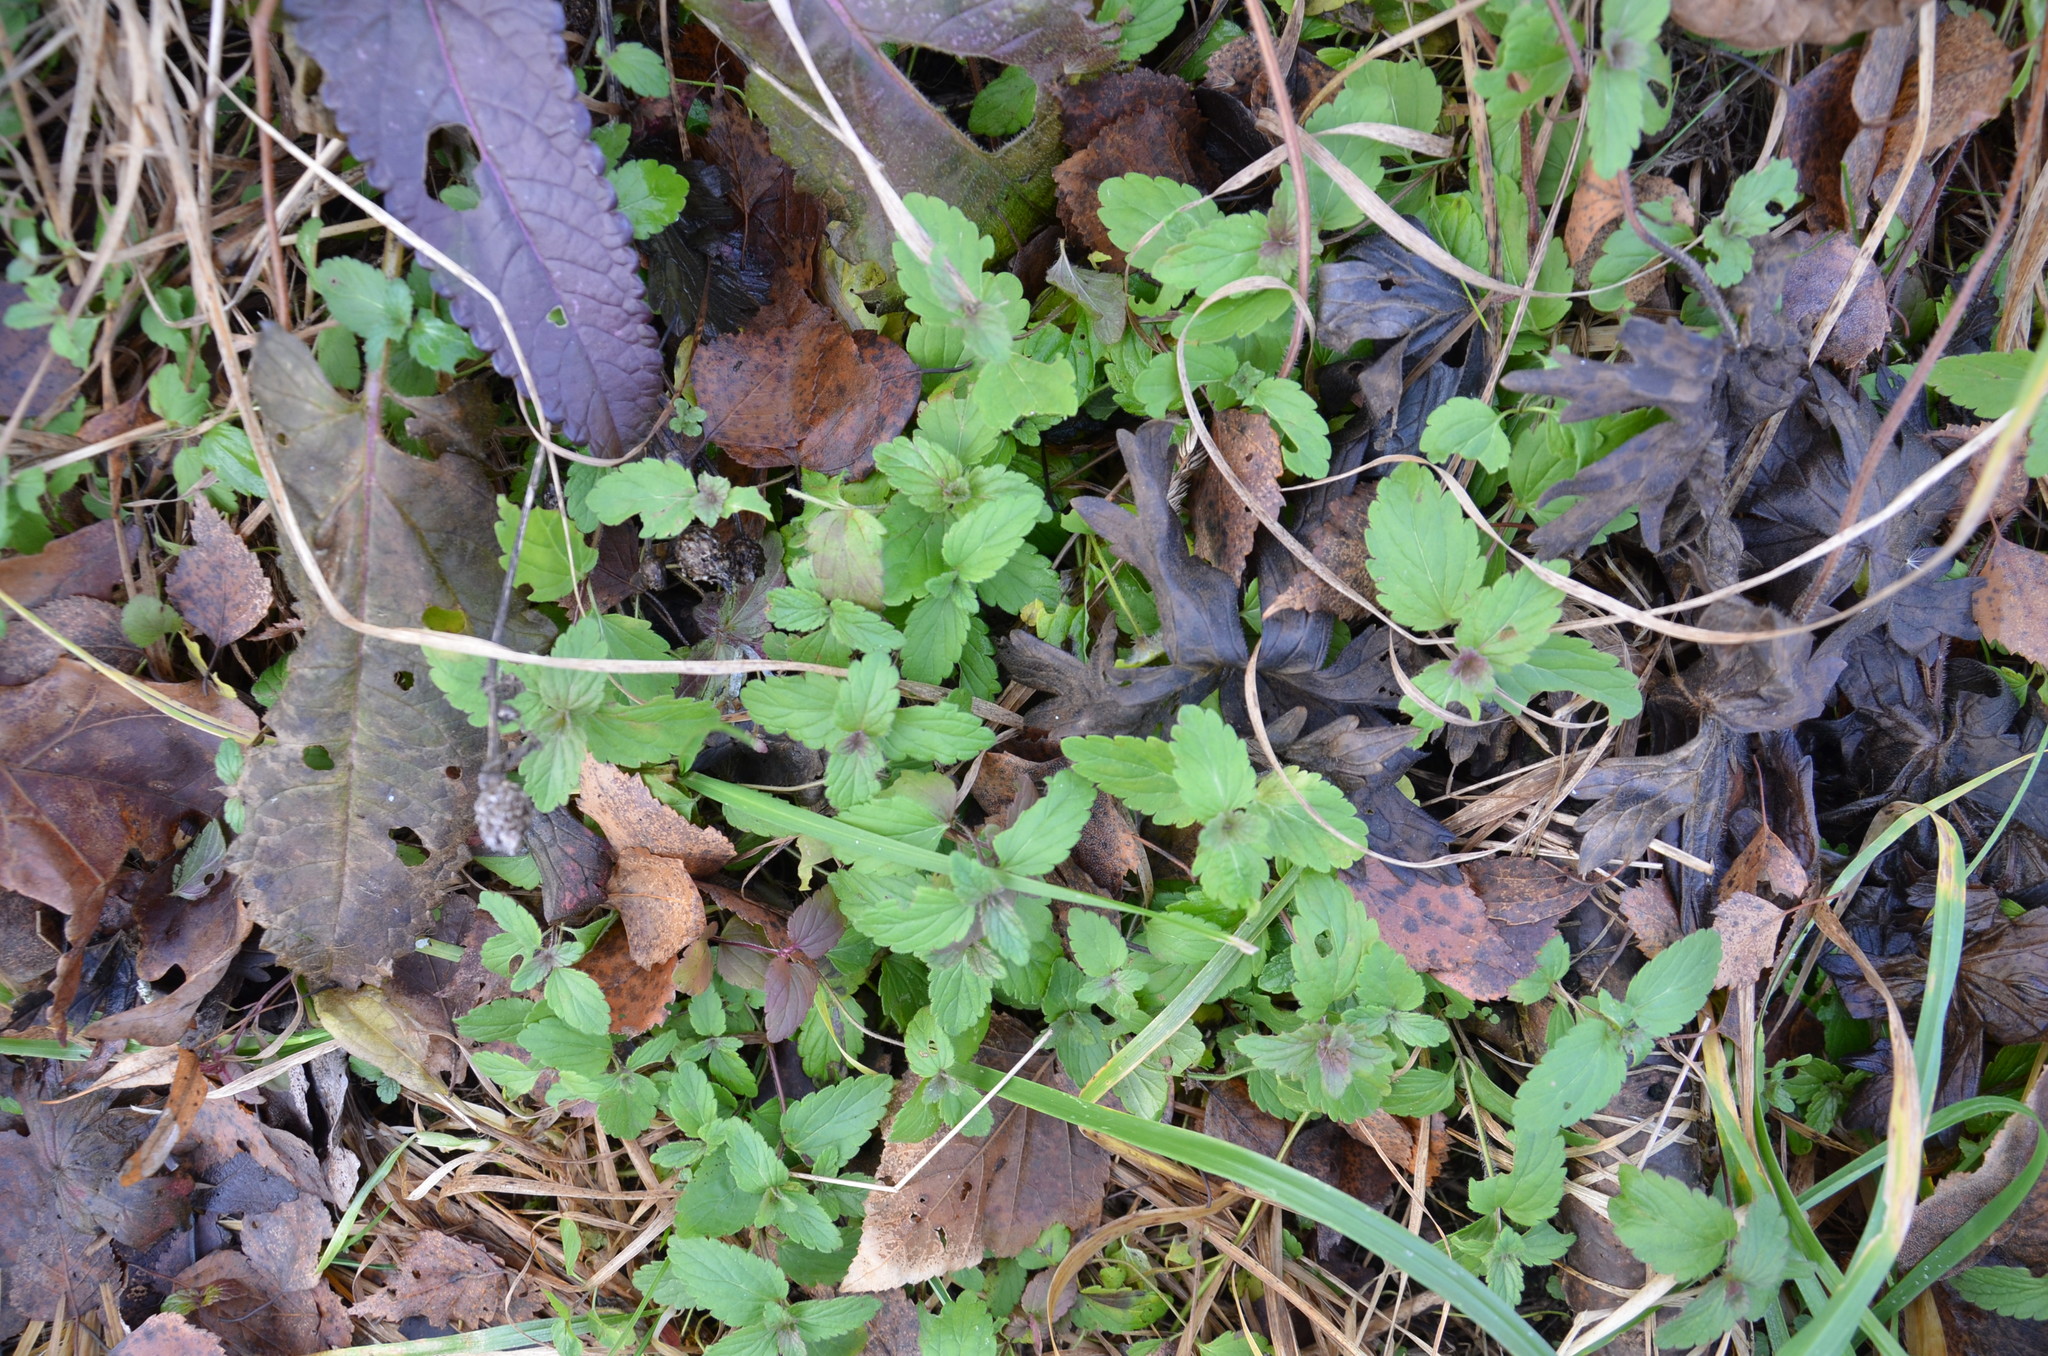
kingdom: Plantae
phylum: Tracheophyta
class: Magnoliopsida
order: Lamiales
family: Plantaginaceae
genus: Veronica
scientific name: Veronica chamaedrys
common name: Germander speedwell
